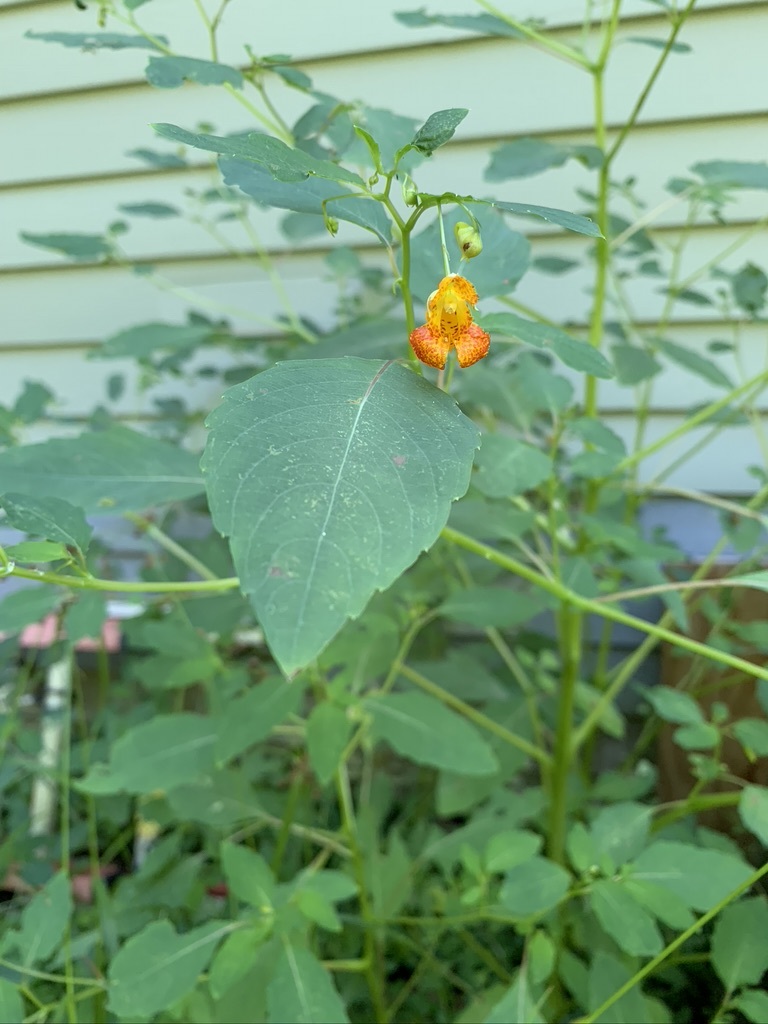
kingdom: Plantae
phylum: Tracheophyta
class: Magnoliopsida
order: Ericales
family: Balsaminaceae
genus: Impatiens
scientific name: Impatiens capensis
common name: Orange balsam
